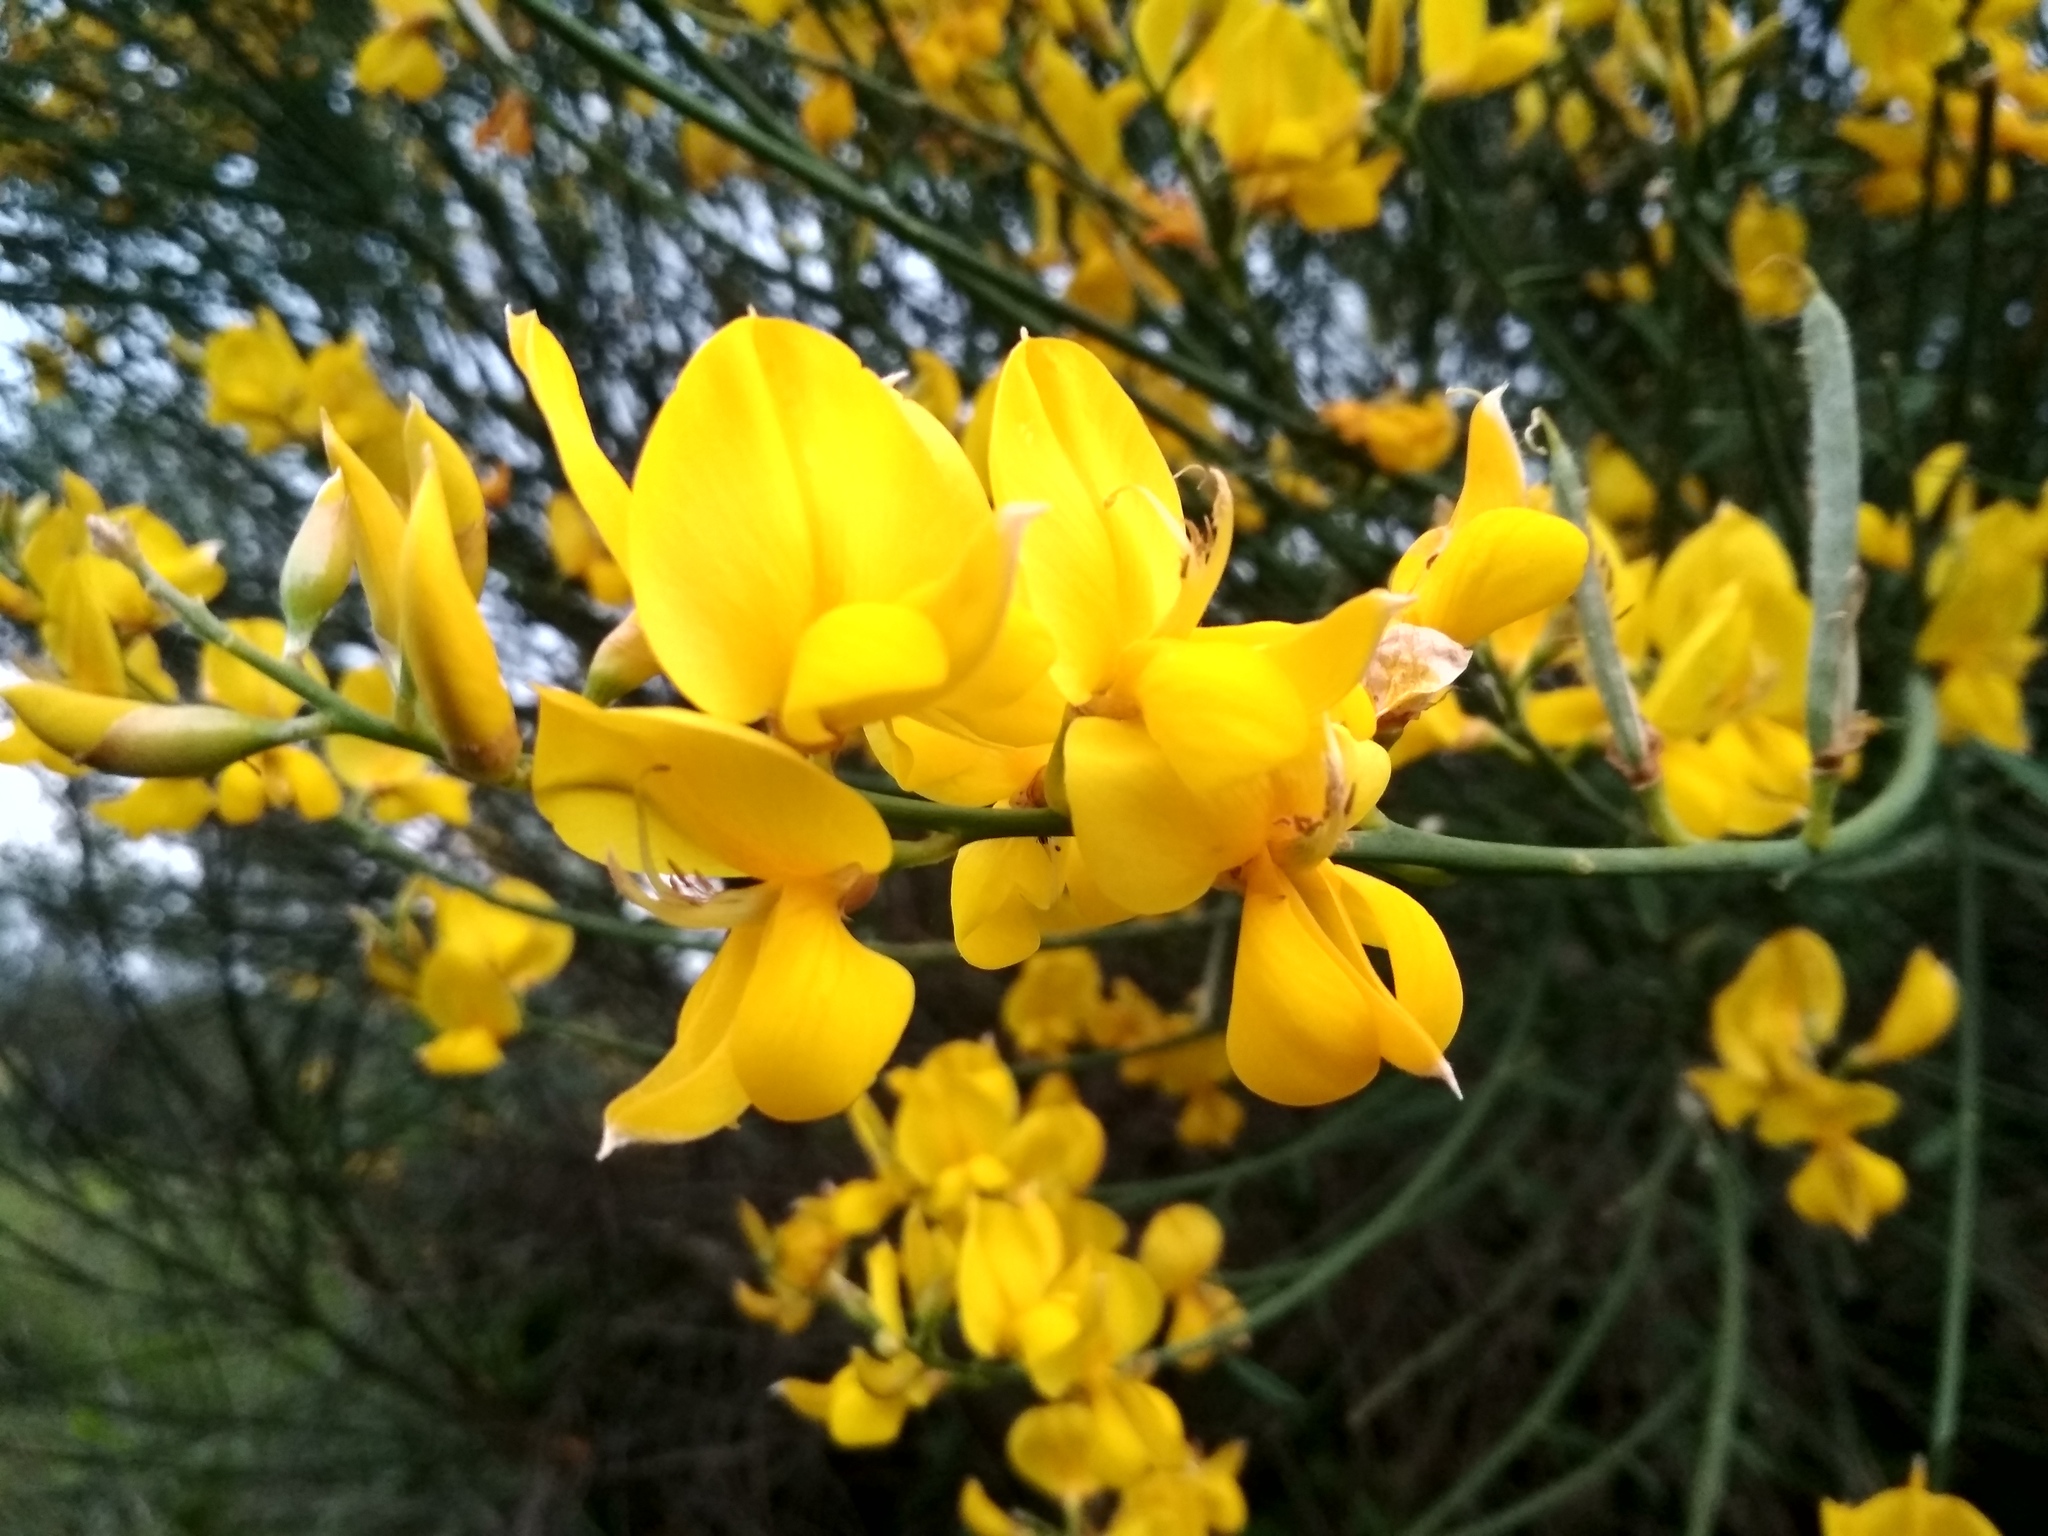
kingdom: Plantae
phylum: Tracheophyta
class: Magnoliopsida
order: Fabales
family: Fabaceae
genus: Spartium
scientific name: Spartium junceum
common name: Spanish broom
